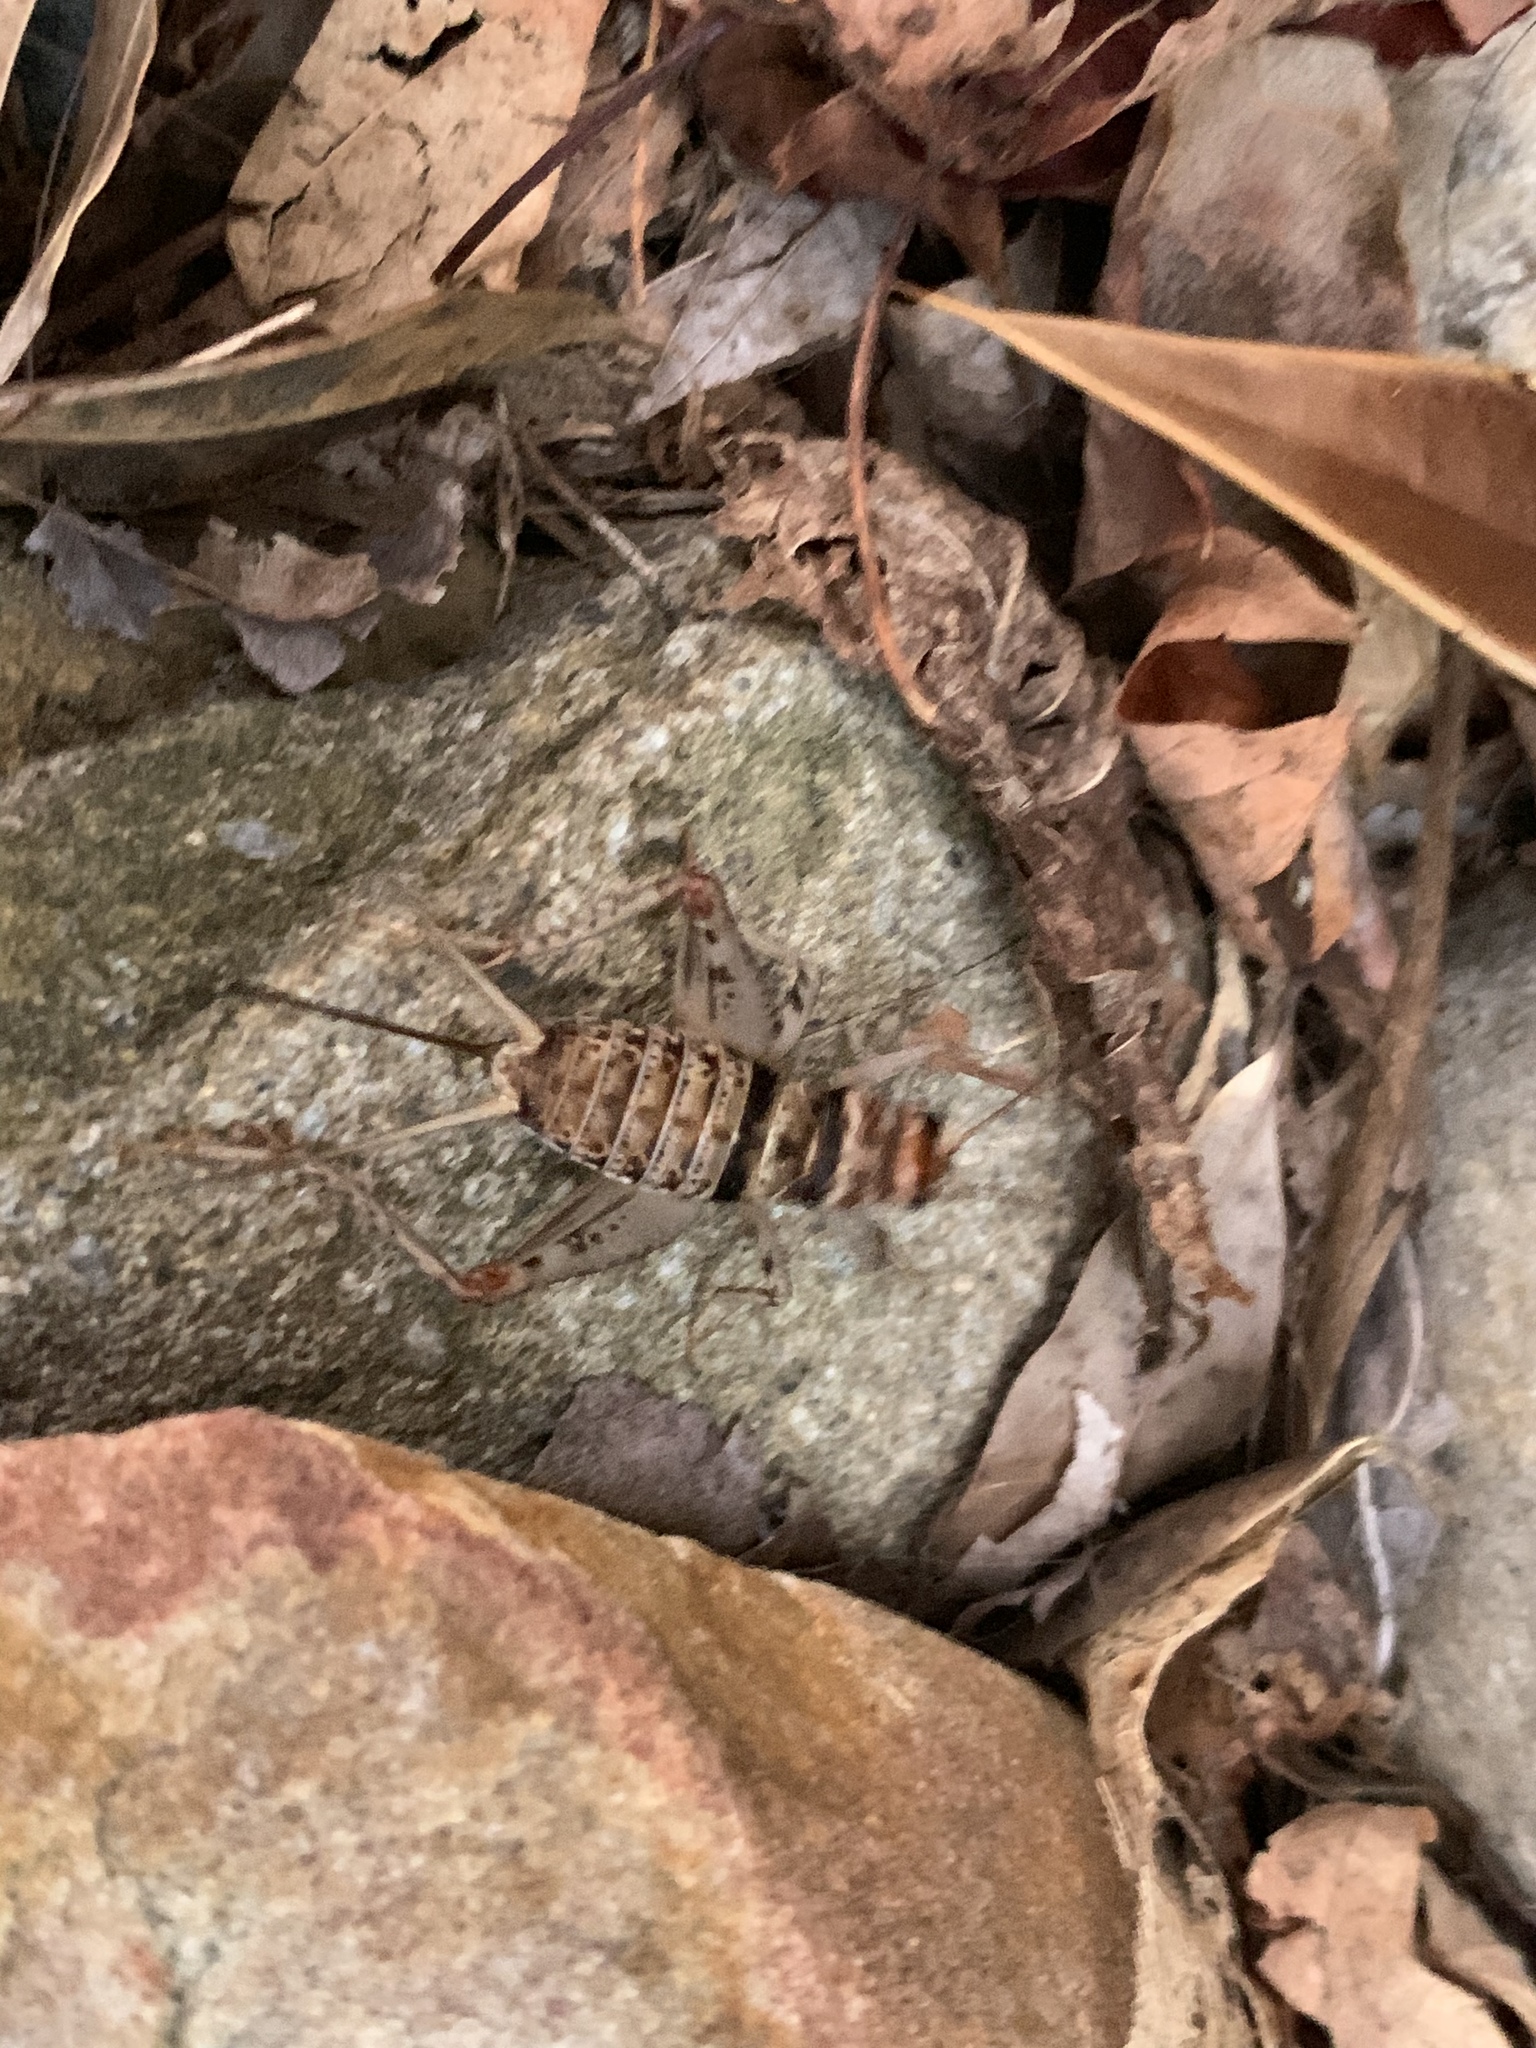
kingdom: Animalia
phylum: Arthropoda
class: Insecta
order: Orthoptera
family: Gryllidae
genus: Gryllodes
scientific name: Gryllodes sigillatus
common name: Tropical house cricket
